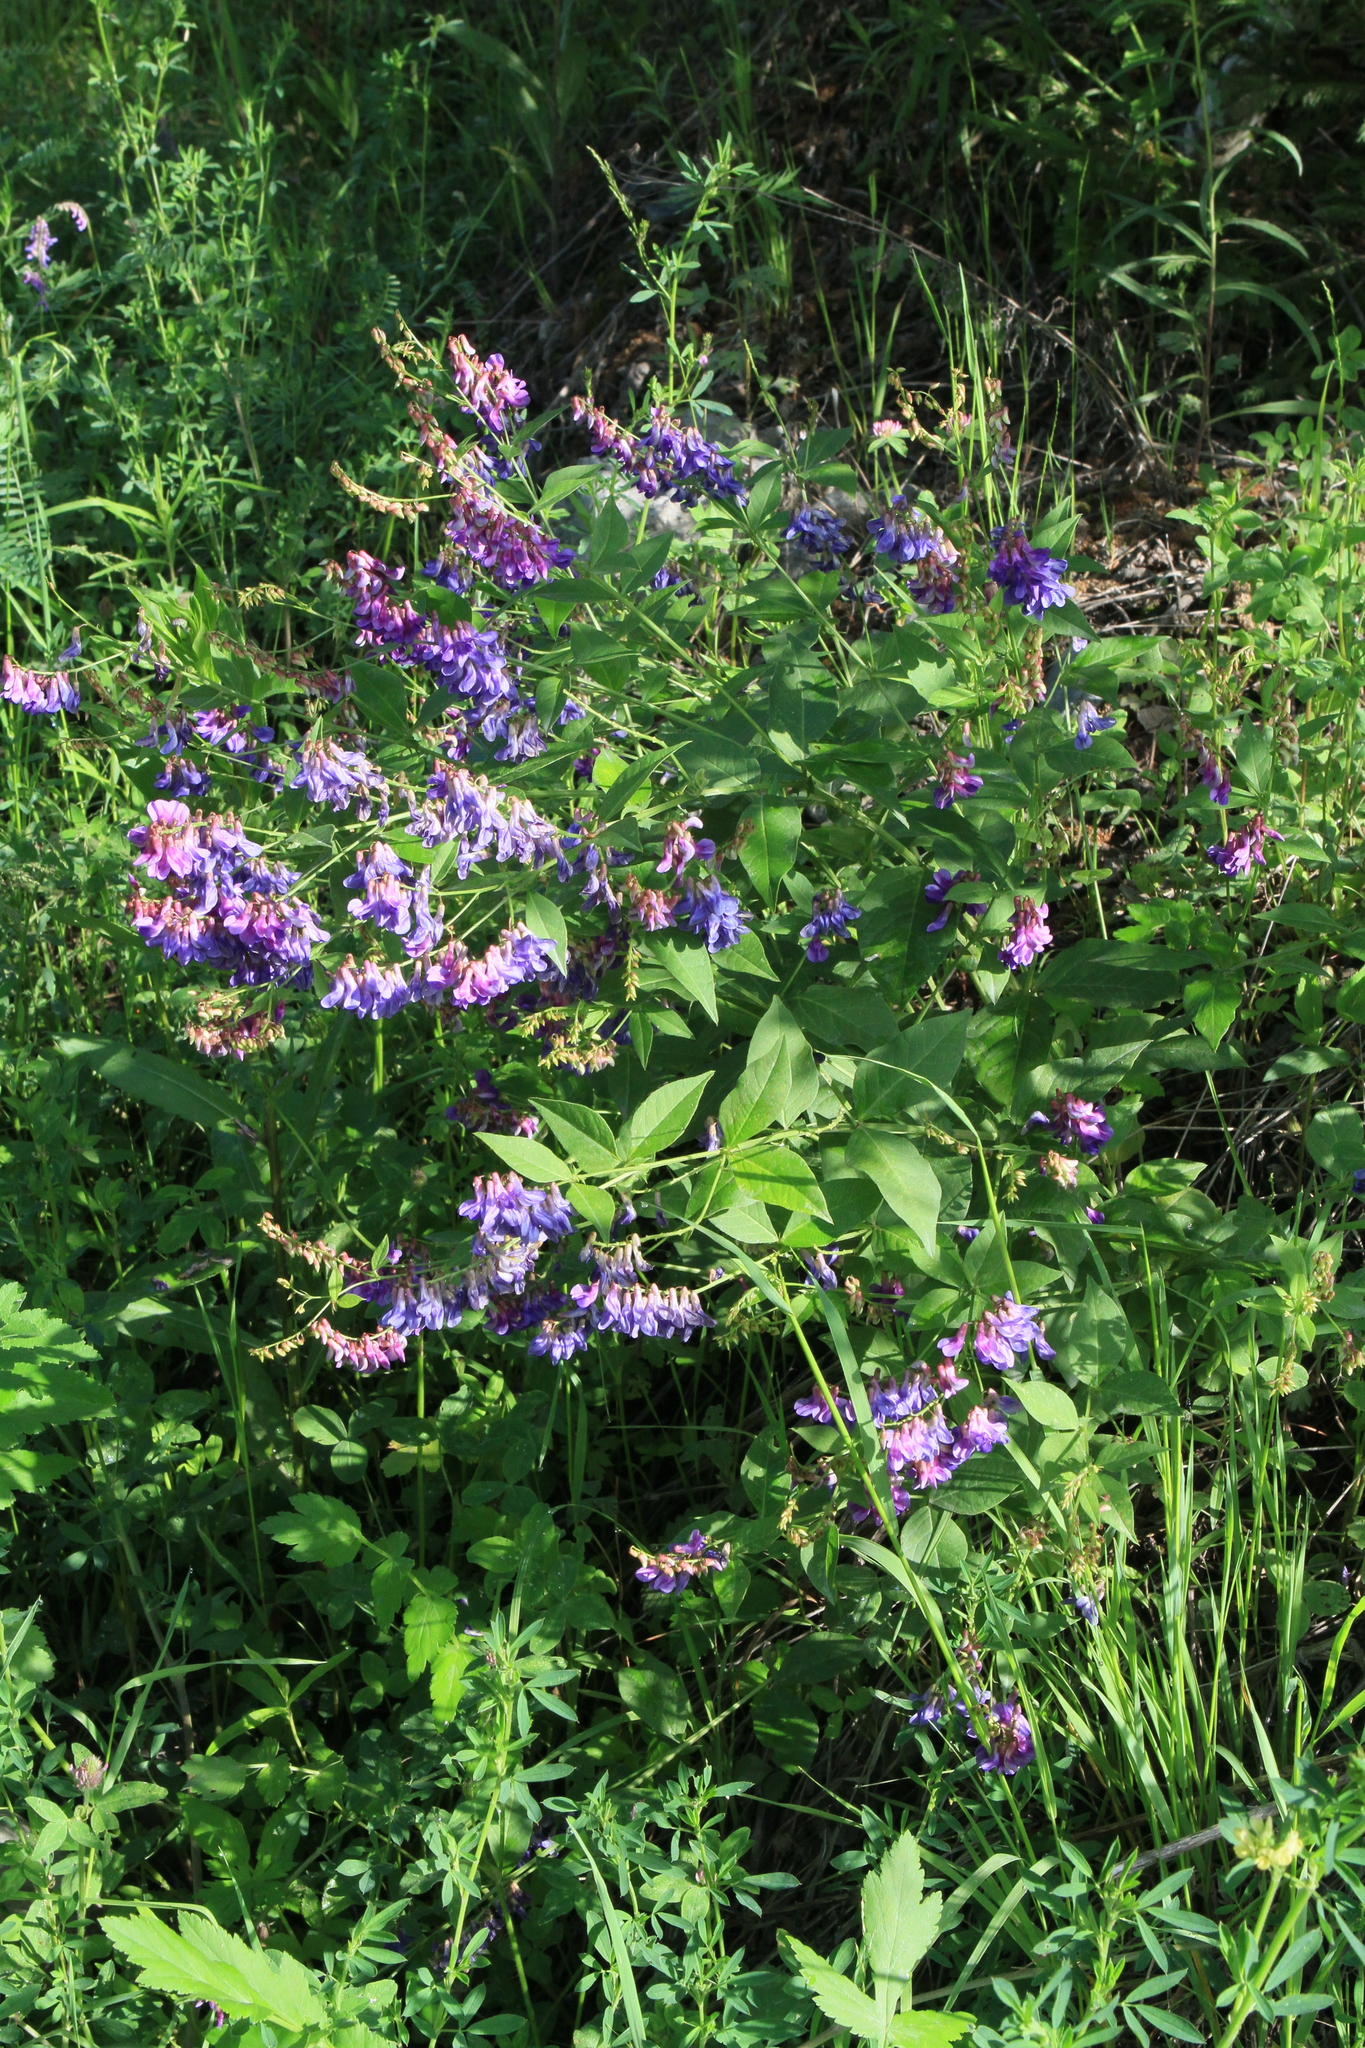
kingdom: Plantae
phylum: Tracheophyta
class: Magnoliopsida
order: Fabales
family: Fabaceae
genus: Vicia
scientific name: Vicia unijuga
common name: Two-leaf vetch
